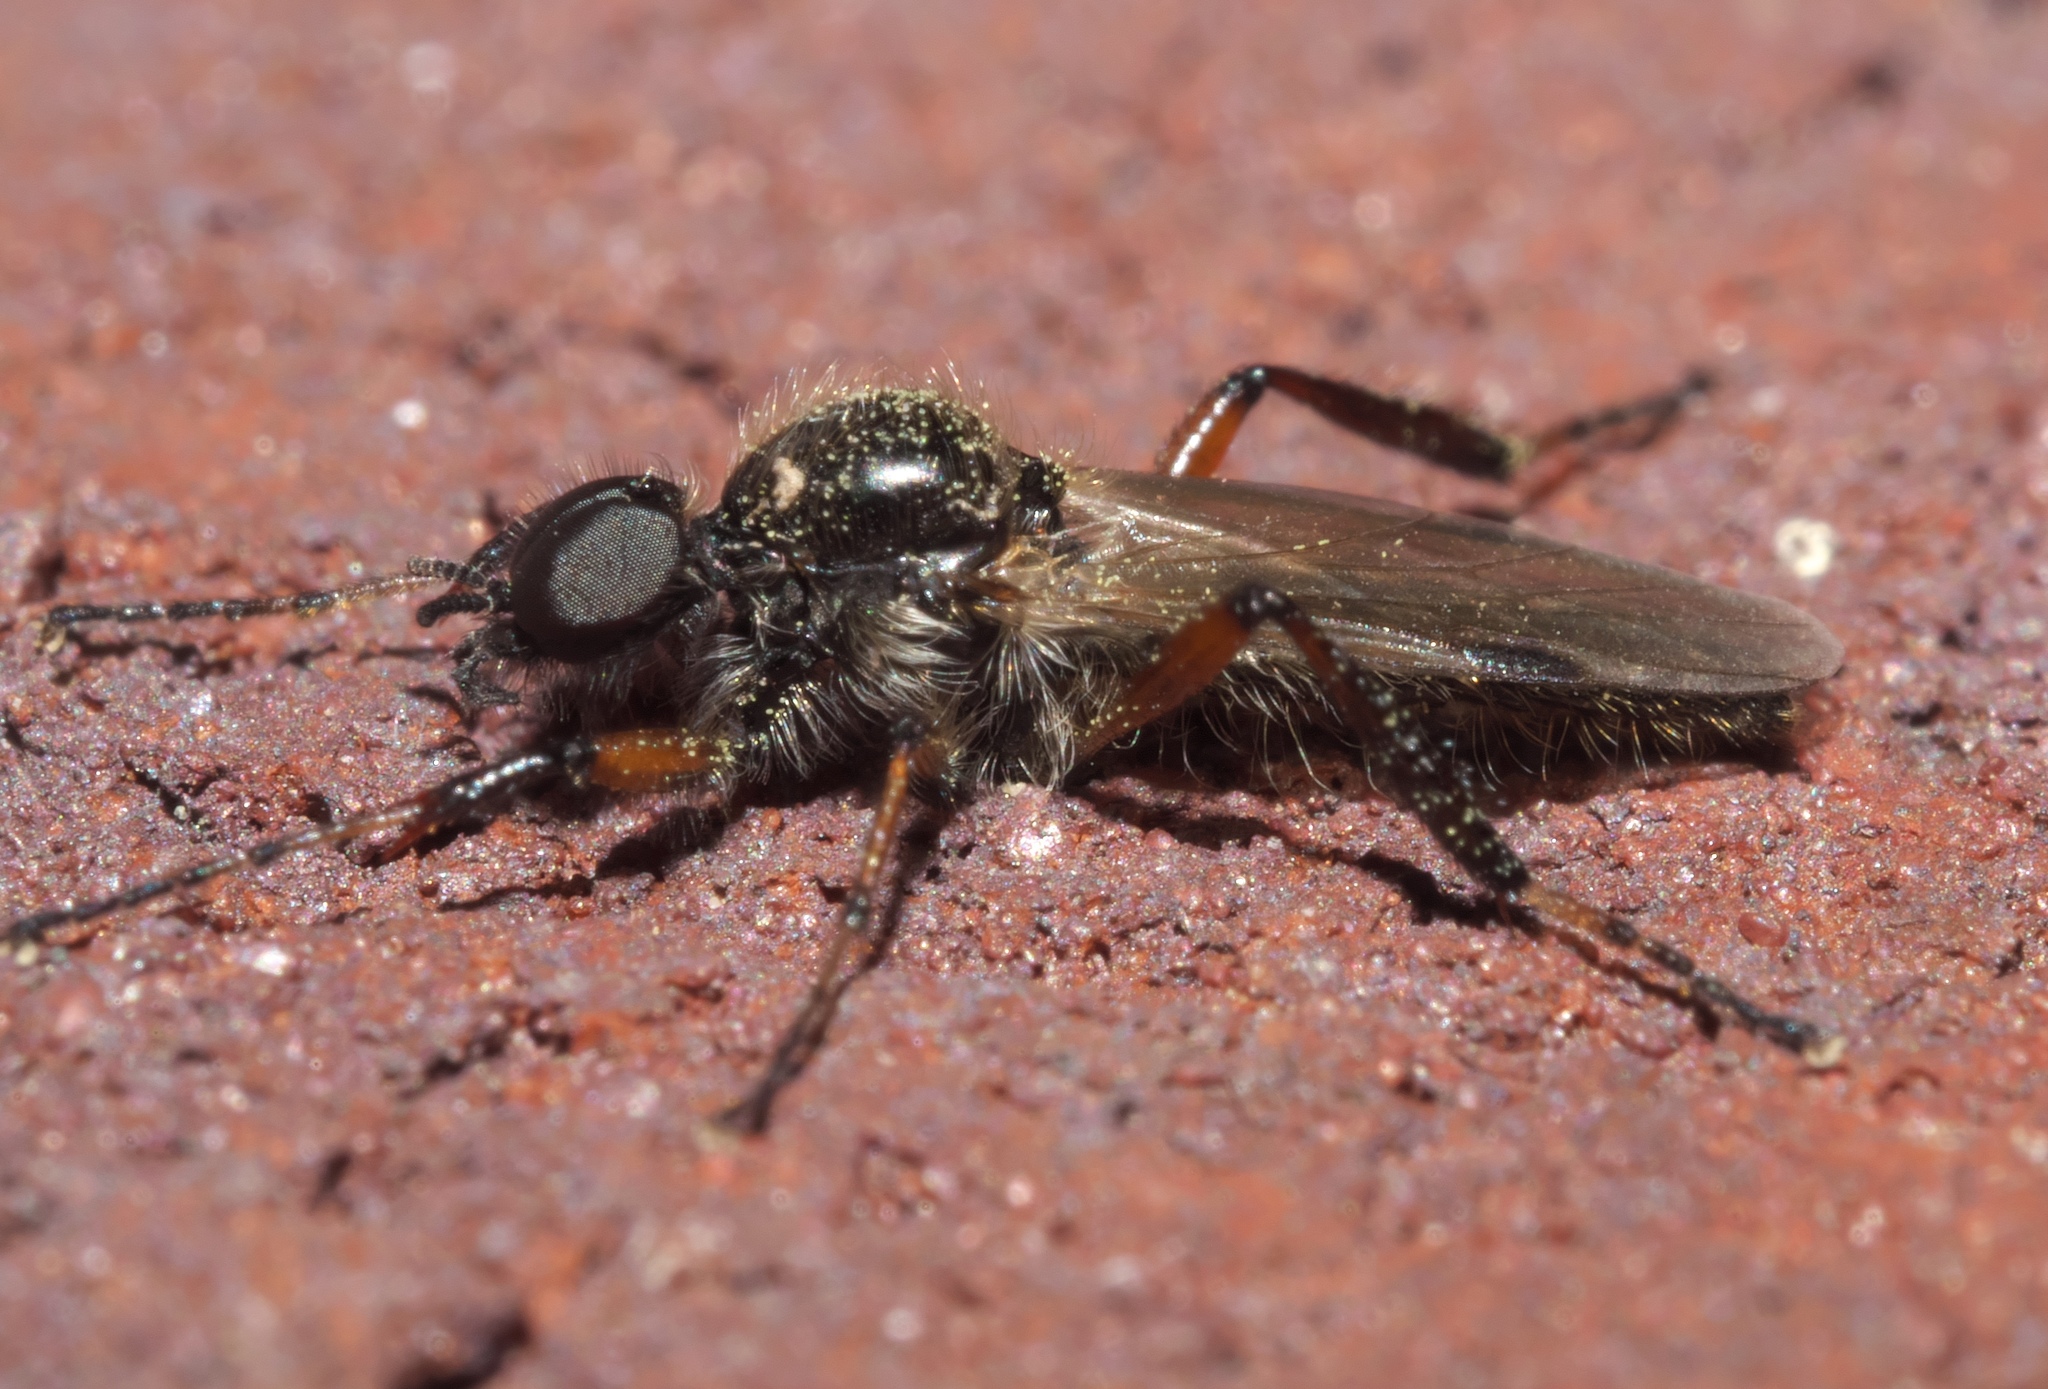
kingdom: Animalia
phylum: Arthropoda
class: Insecta
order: Diptera
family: Bibionidae
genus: Bibio
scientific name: Bibio articulatus
